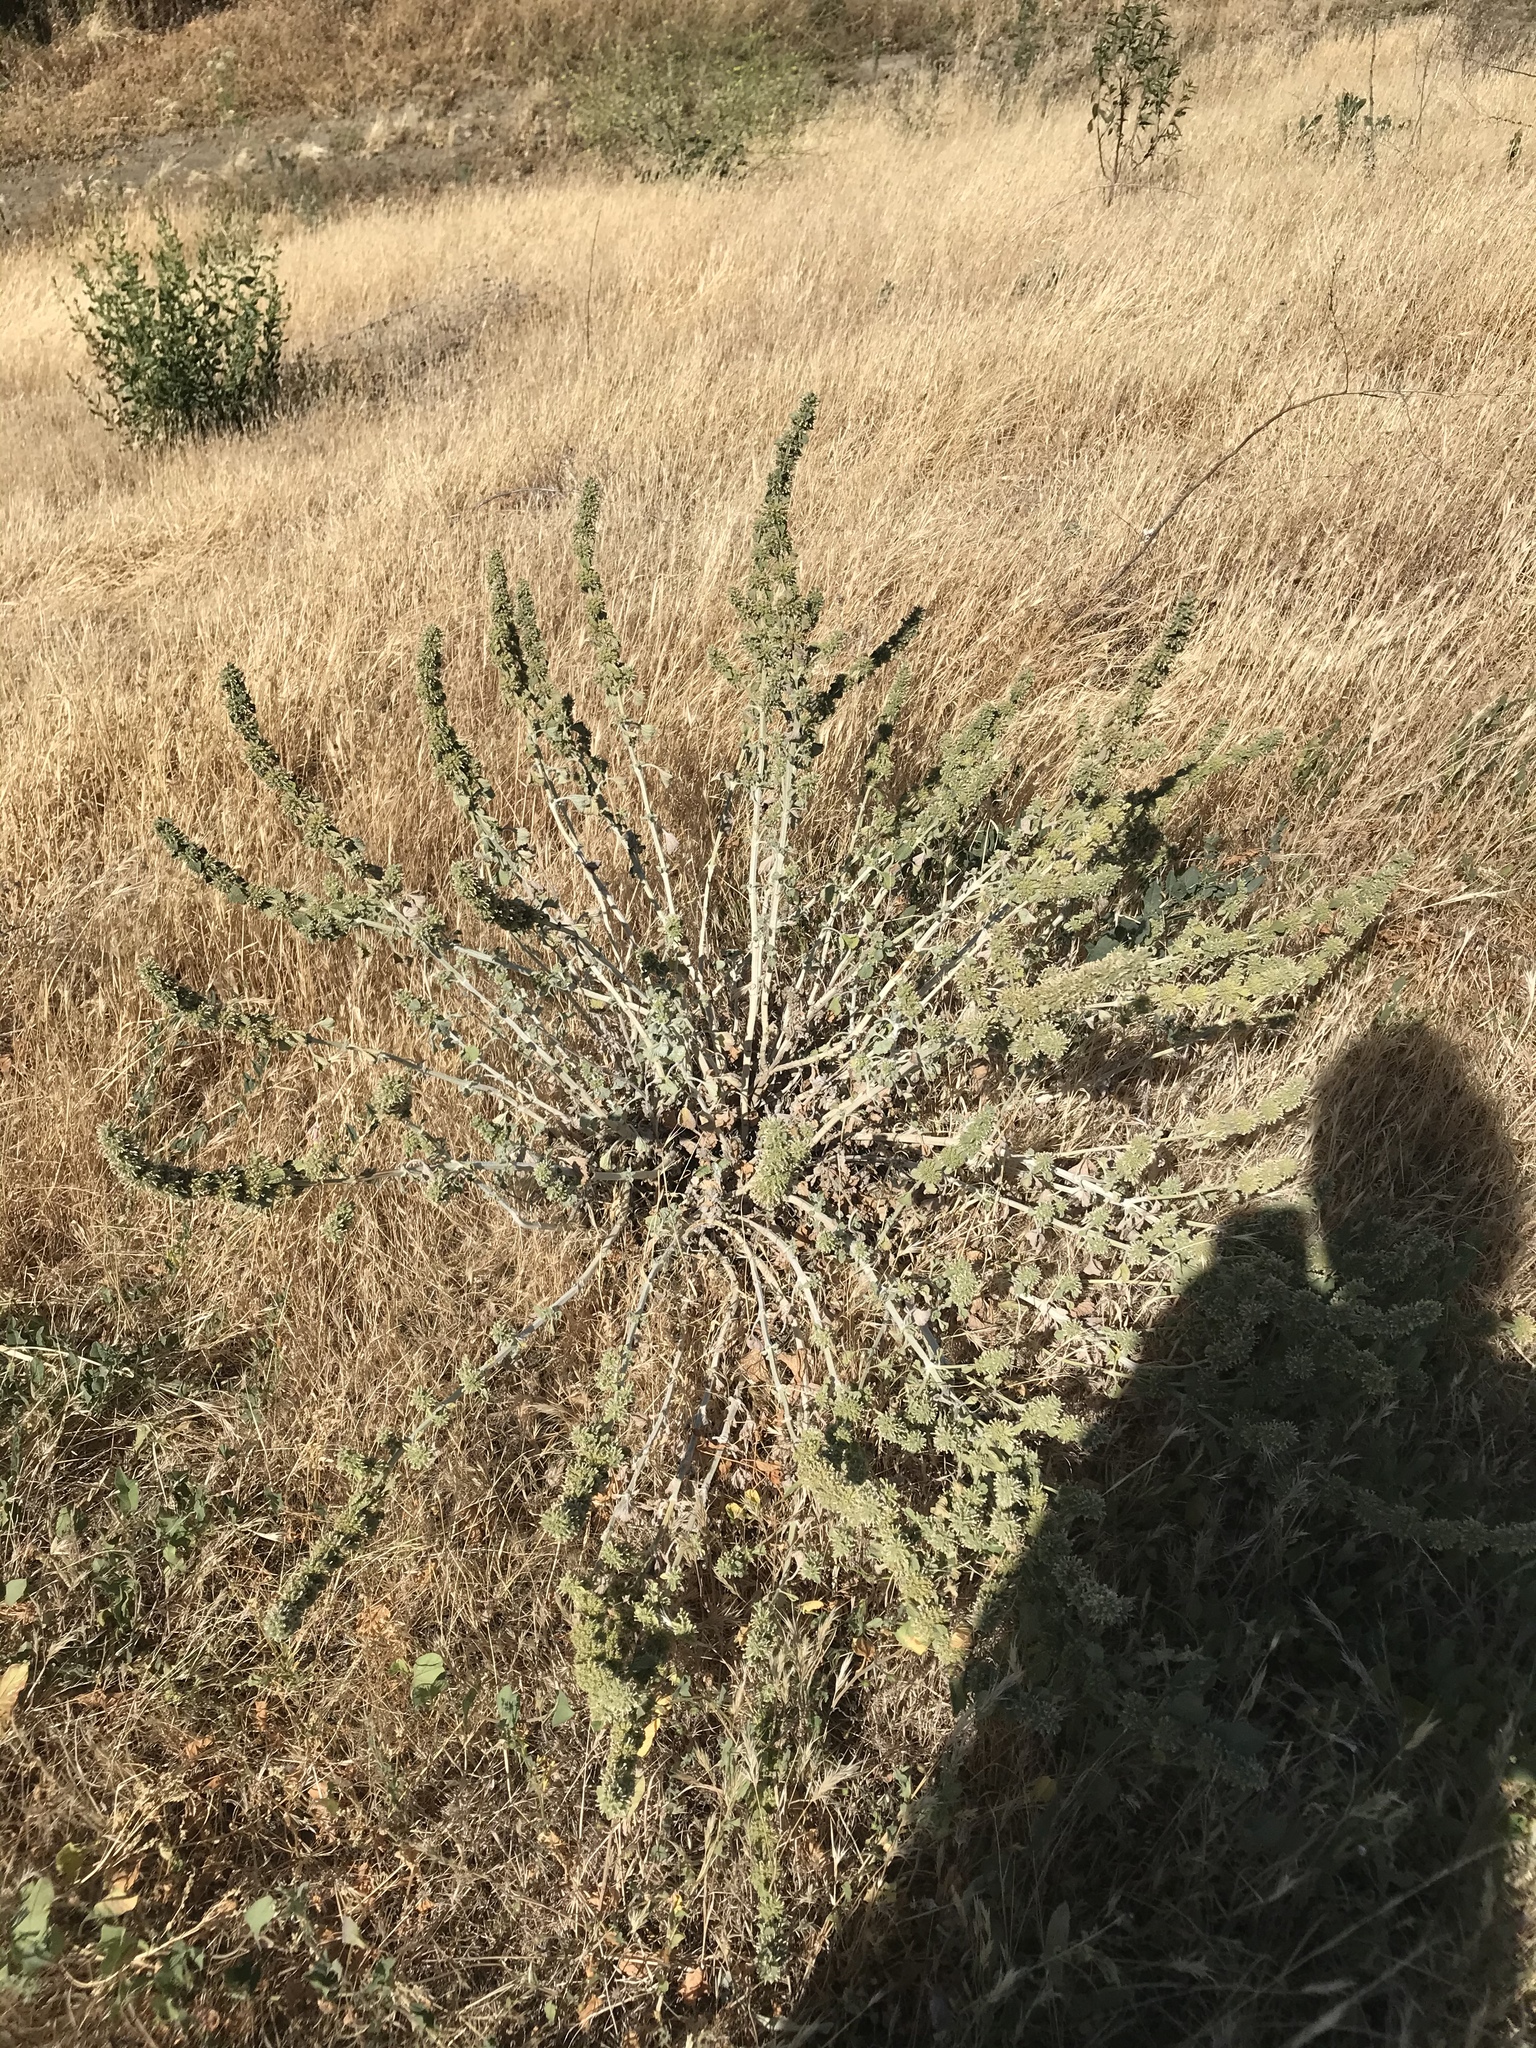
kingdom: Plantae
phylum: Tracheophyta
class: Magnoliopsida
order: Lamiales
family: Lamiaceae
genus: Marrubium
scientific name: Marrubium vulgare
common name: Horehound
